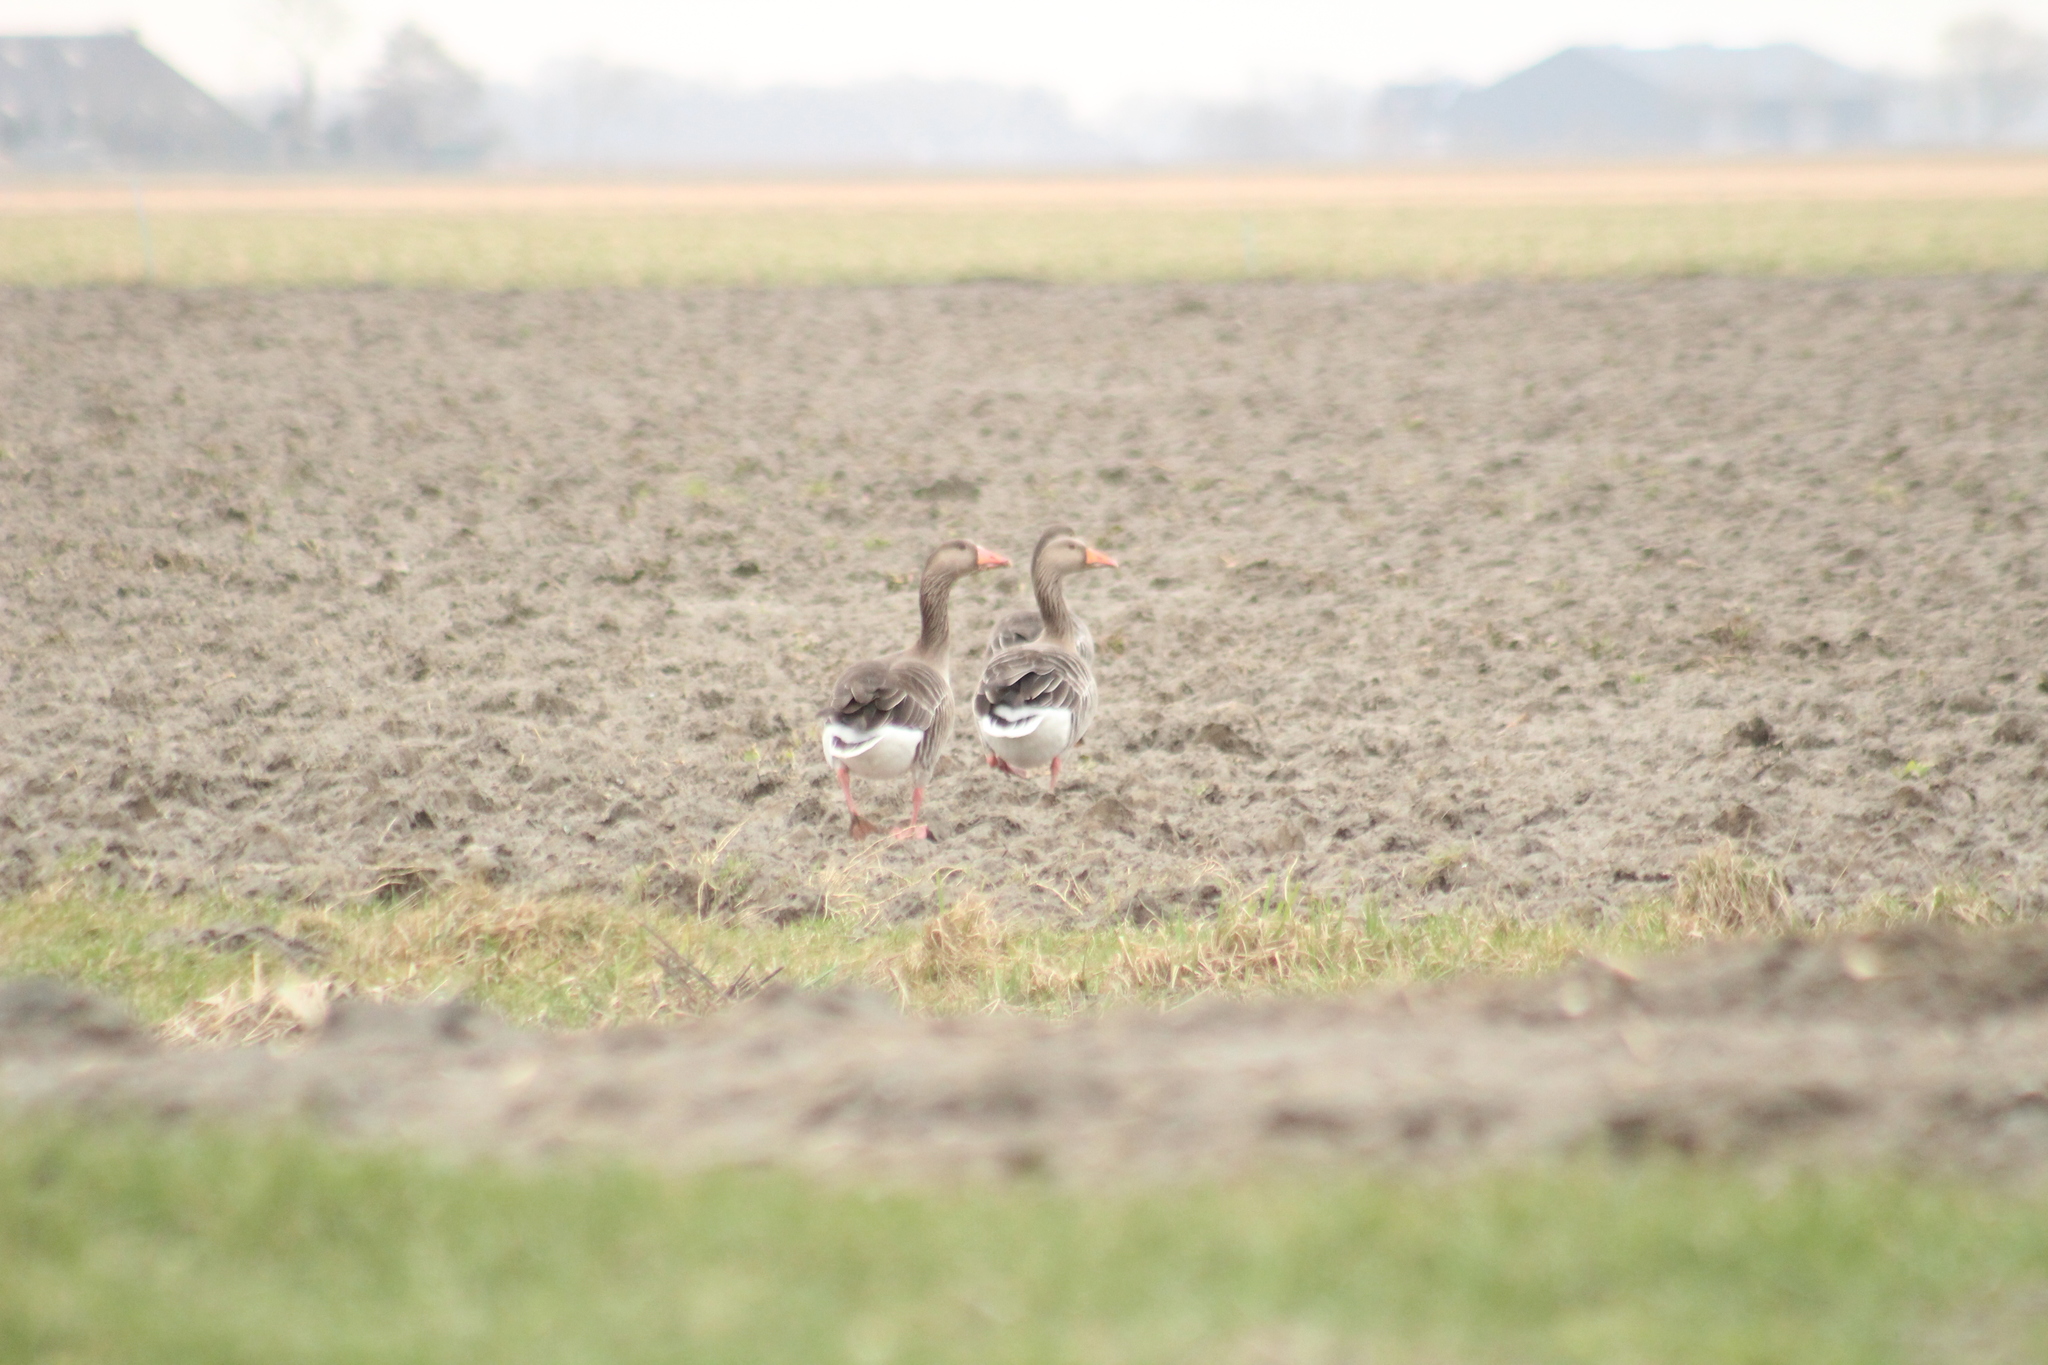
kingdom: Animalia
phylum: Chordata
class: Aves
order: Anseriformes
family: Anatidae
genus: Anser
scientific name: Anser anser
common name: Greylag goose
